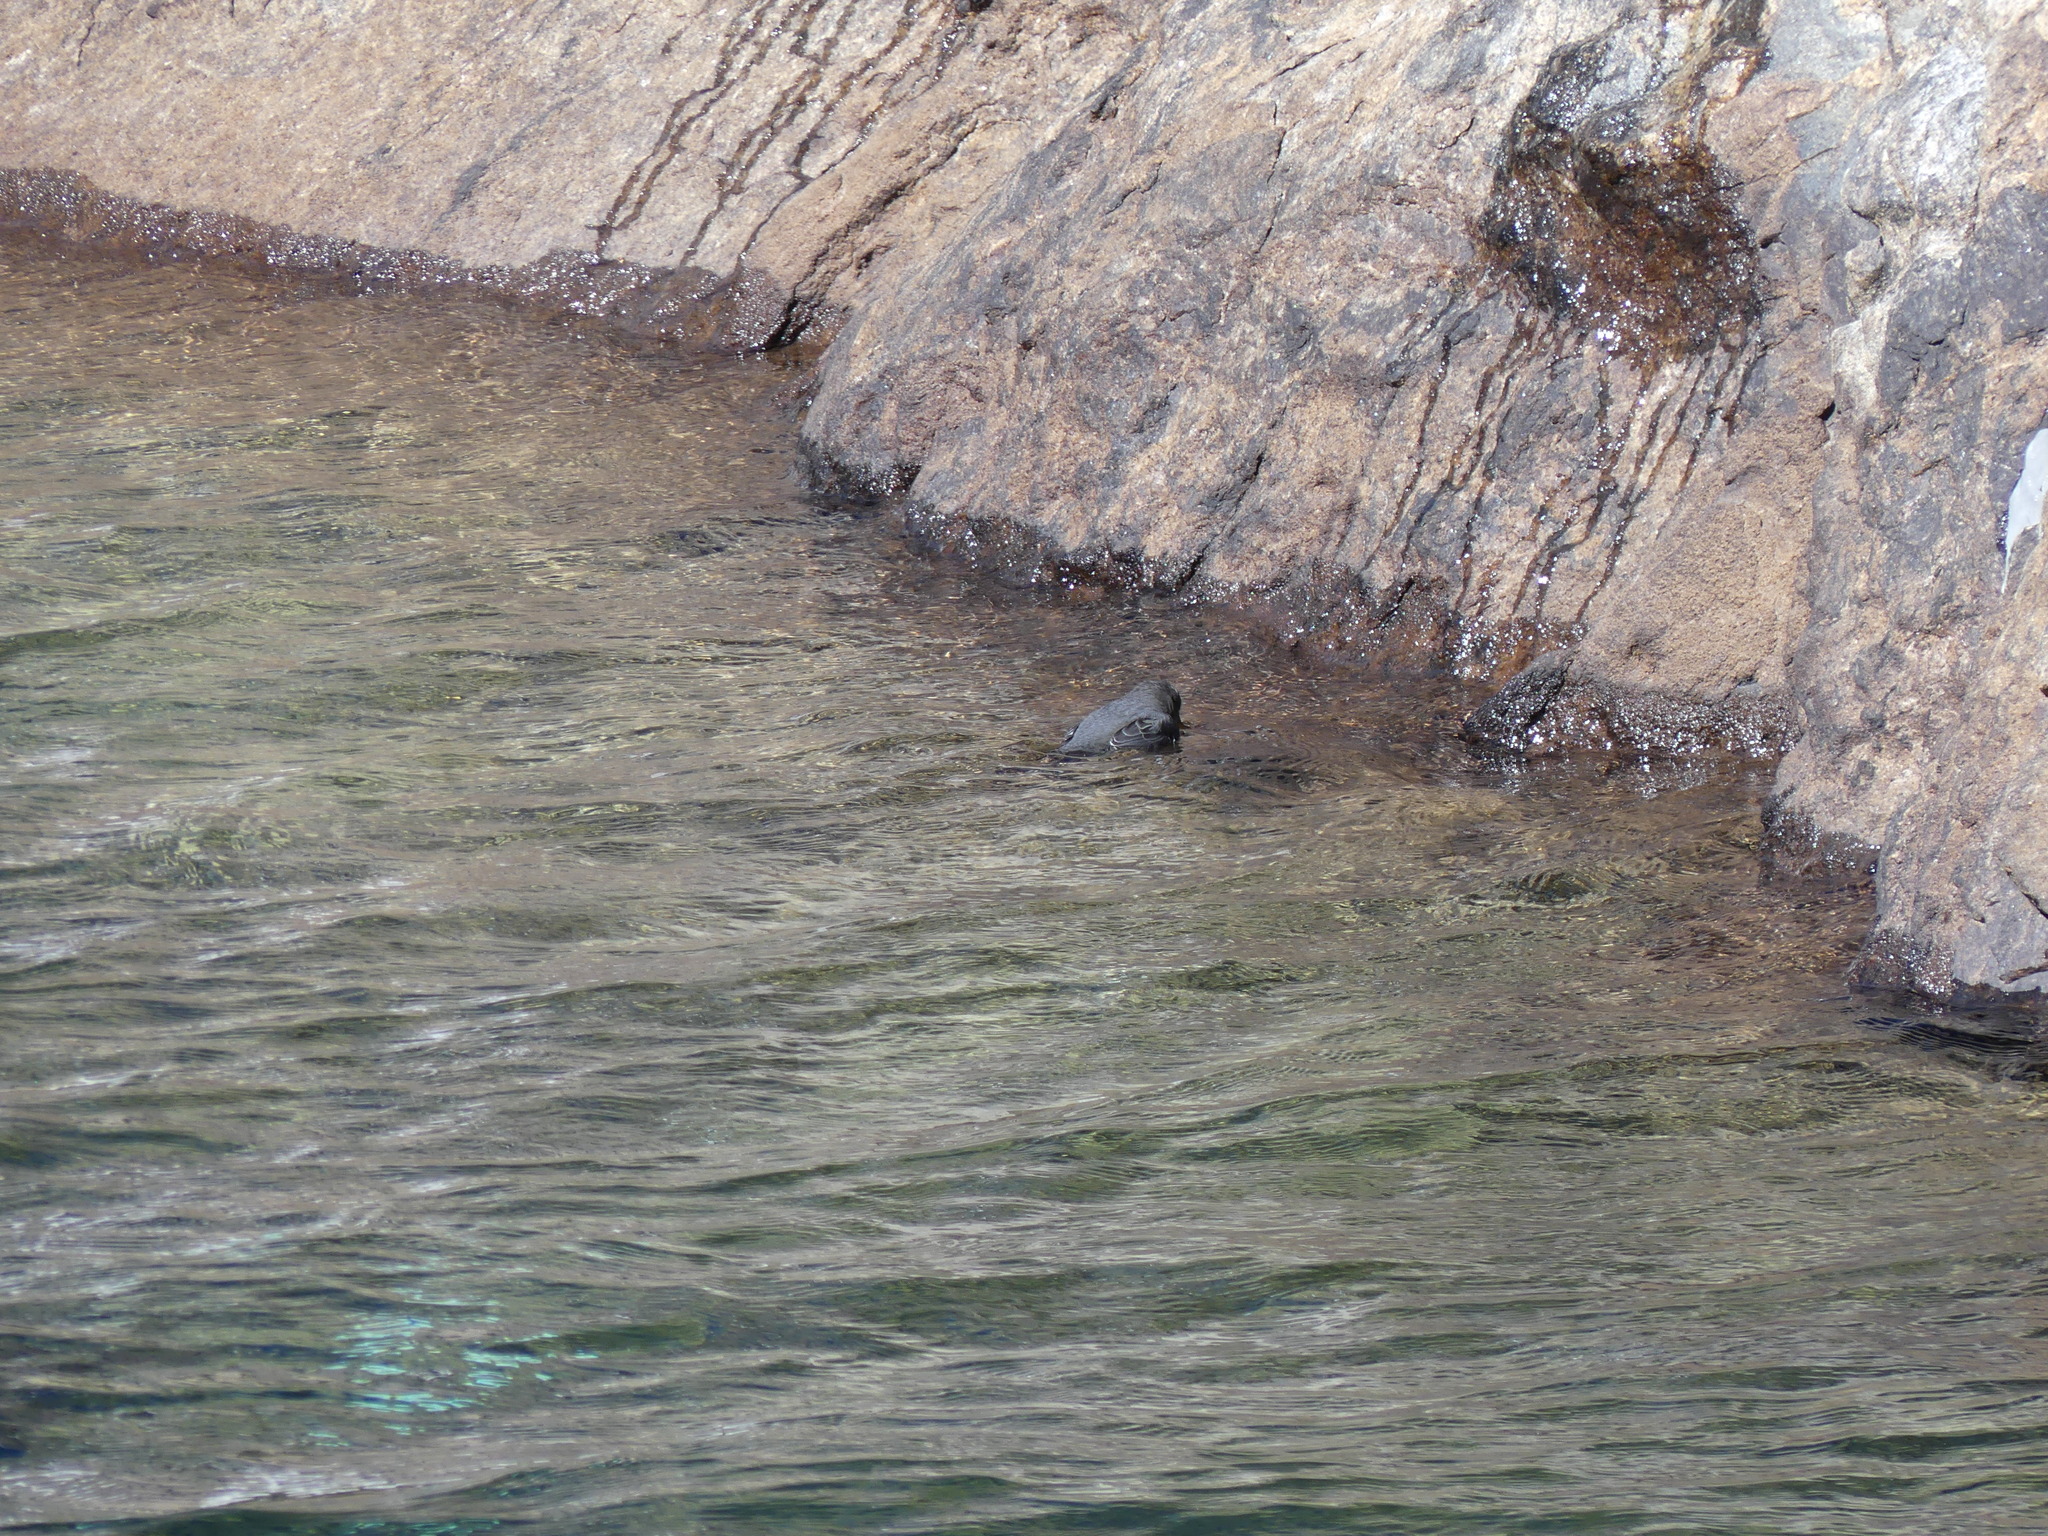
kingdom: Animalia
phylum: Chordata
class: Aves
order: Passeriformes
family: Cinclidae
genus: Cinclus
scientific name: Cinclus mexicanus
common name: American dipper
